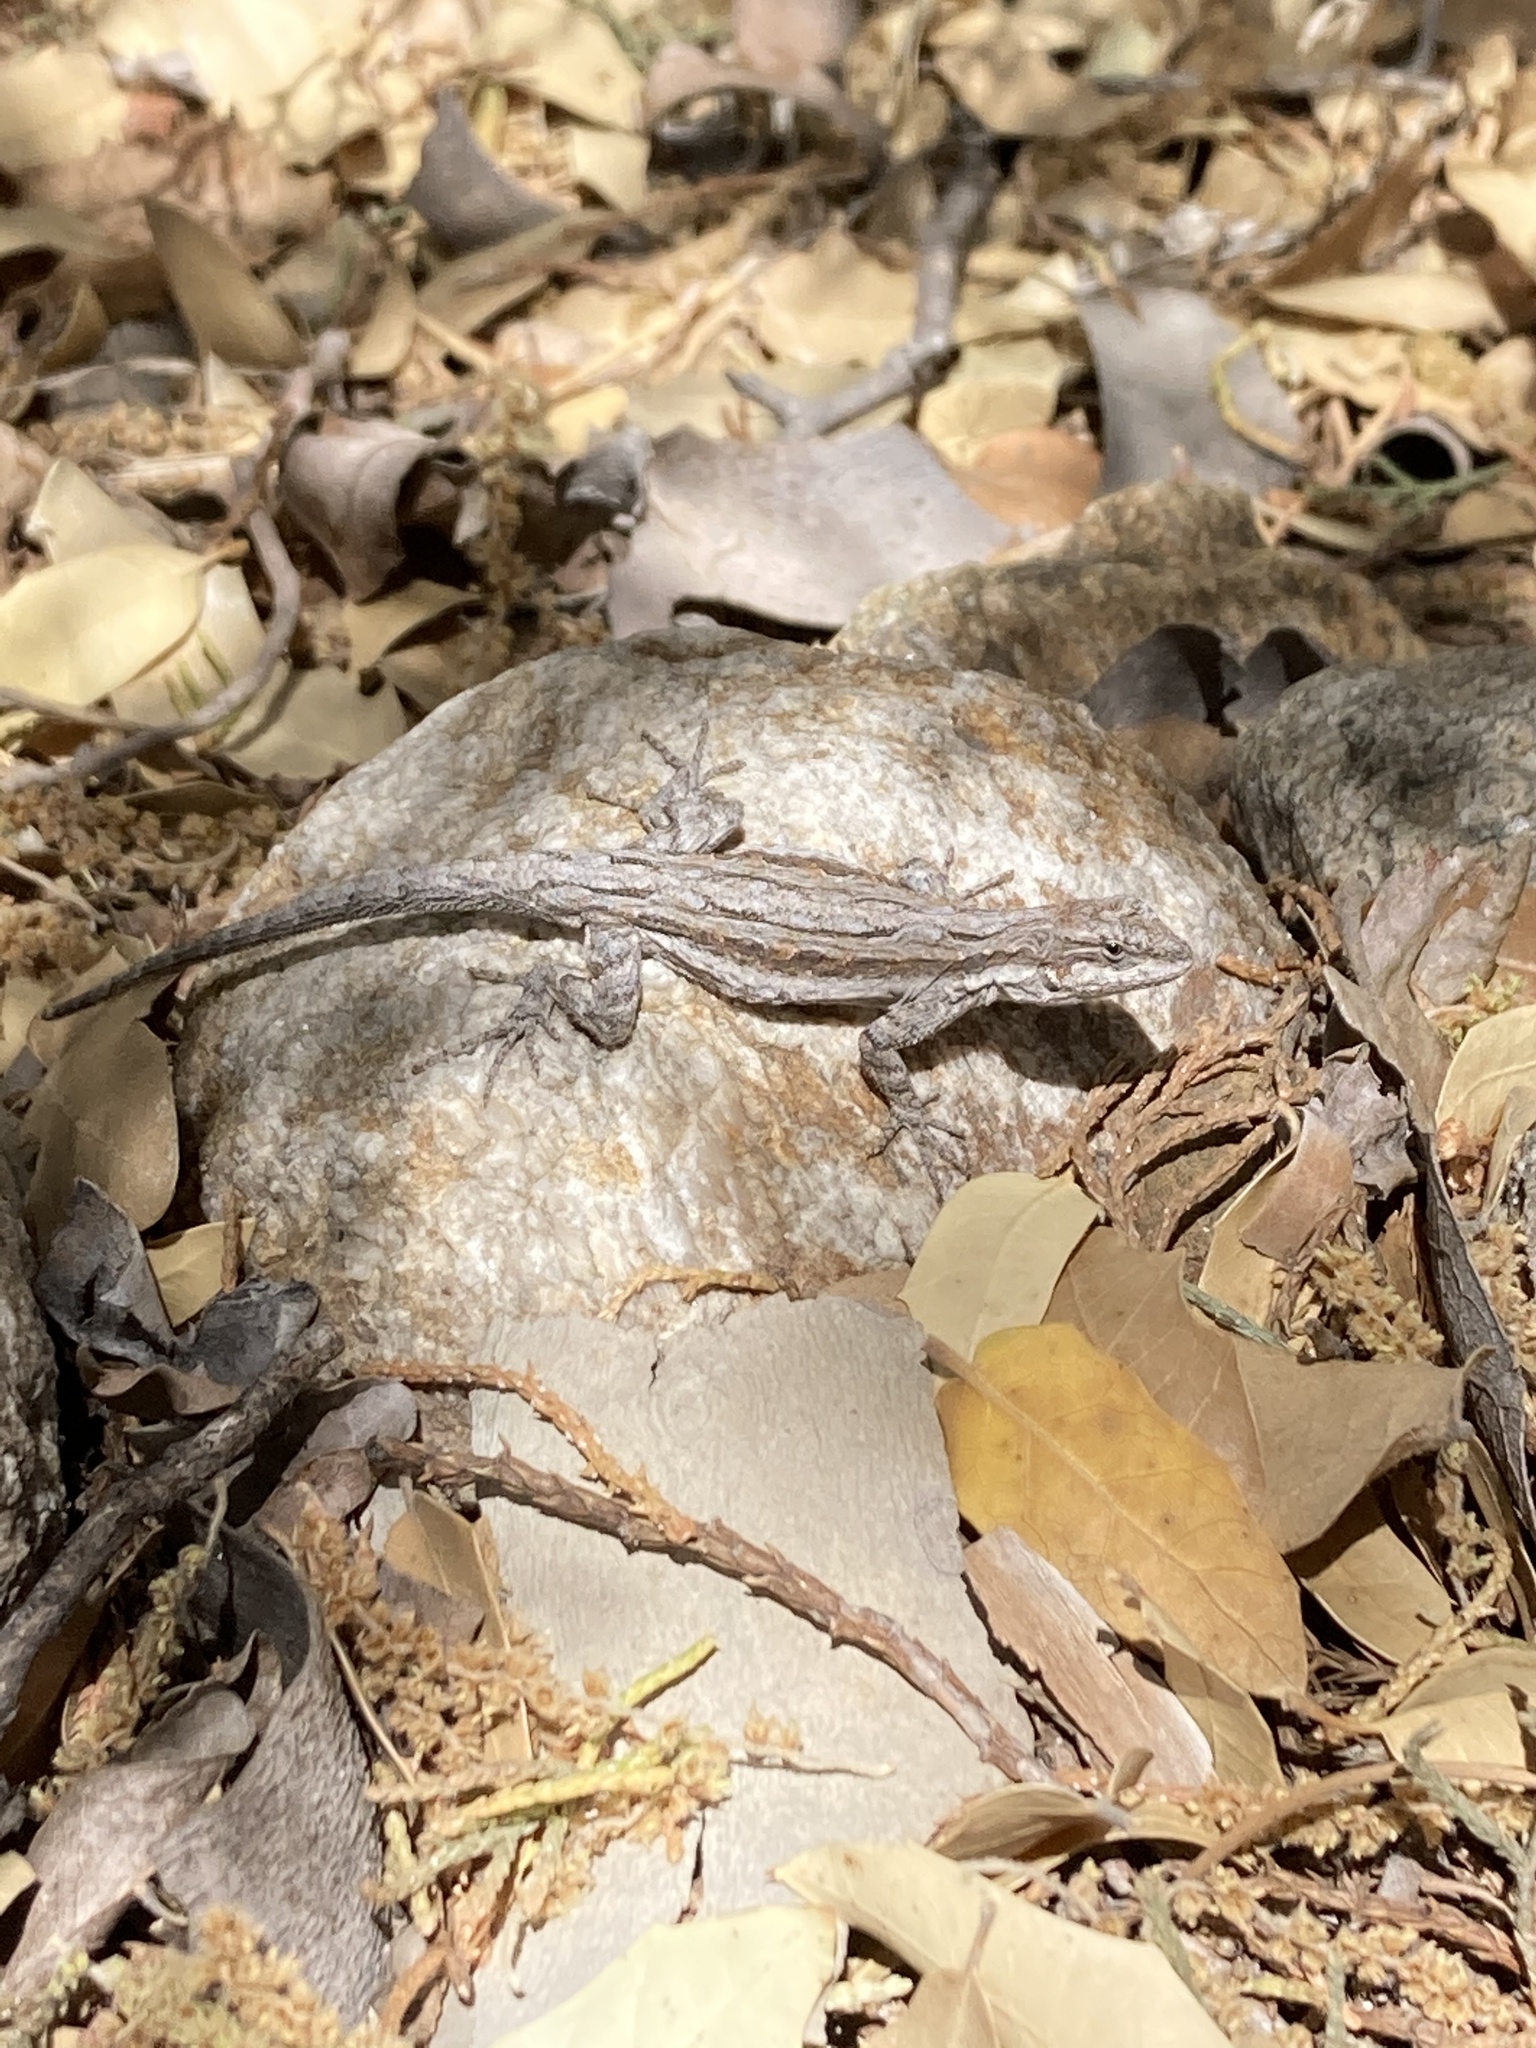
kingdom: Animalia
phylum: Chordata
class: Squamata
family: Phrynosomatidae
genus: Urosaurus
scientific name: Urosaurus ornatus
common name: Ornate tree lizard
